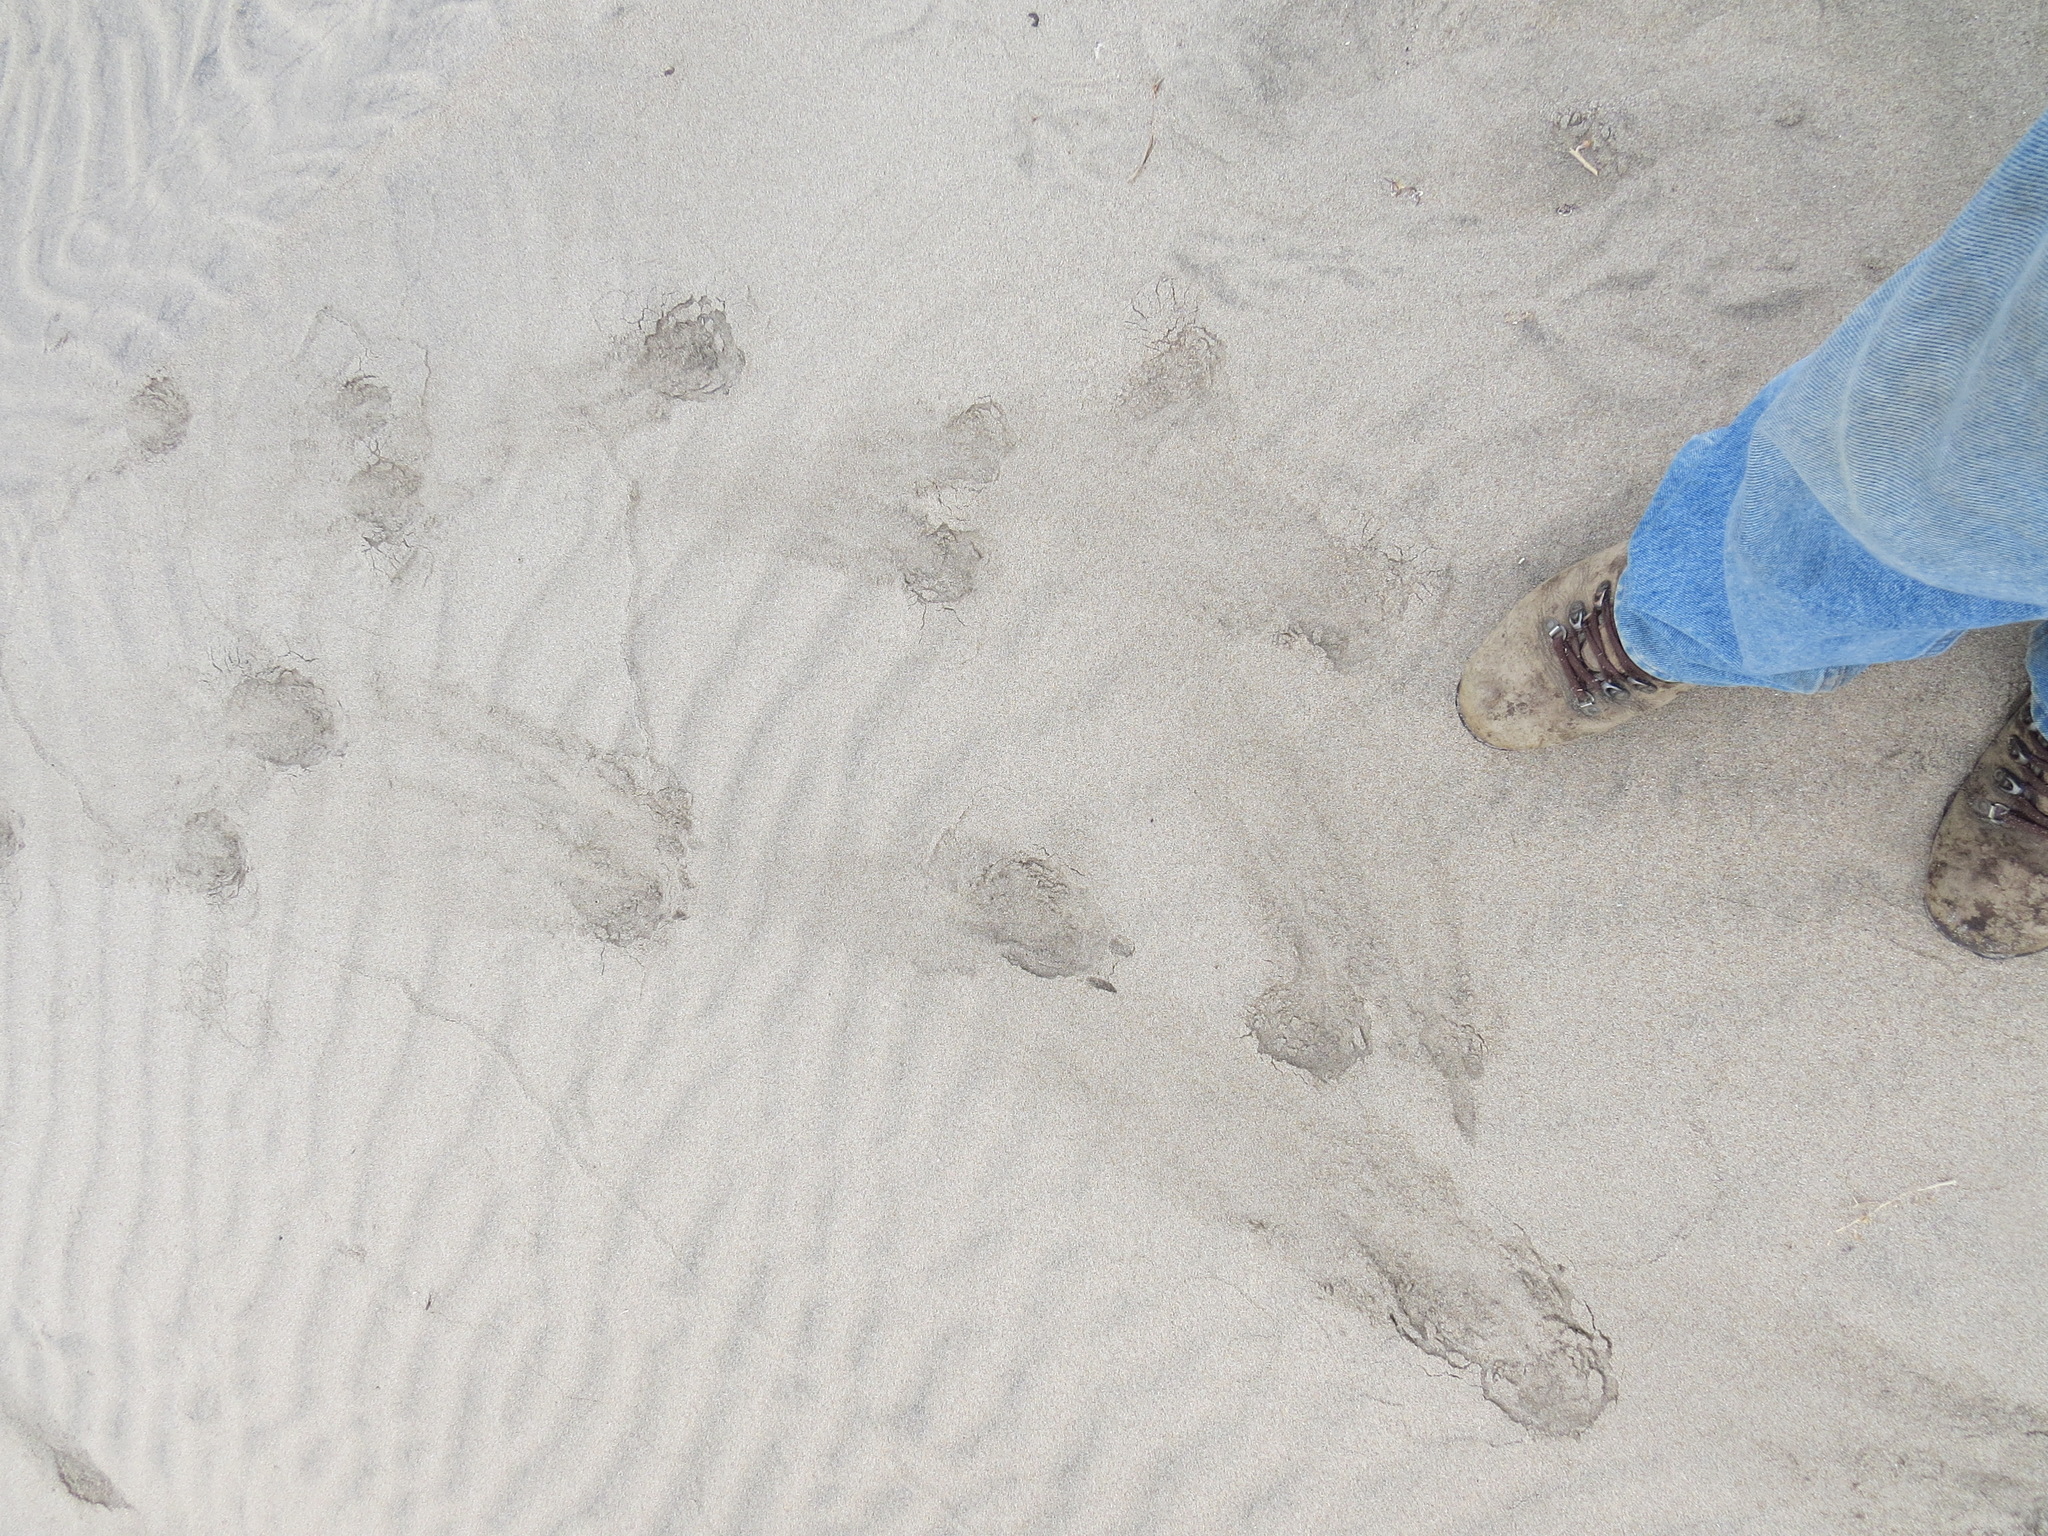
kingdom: Animalia
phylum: Chordata
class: Mammalia
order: Artiodactyla
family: Cervidae
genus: Odocoileus
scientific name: Odocoileus hemionus
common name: Mule deer
